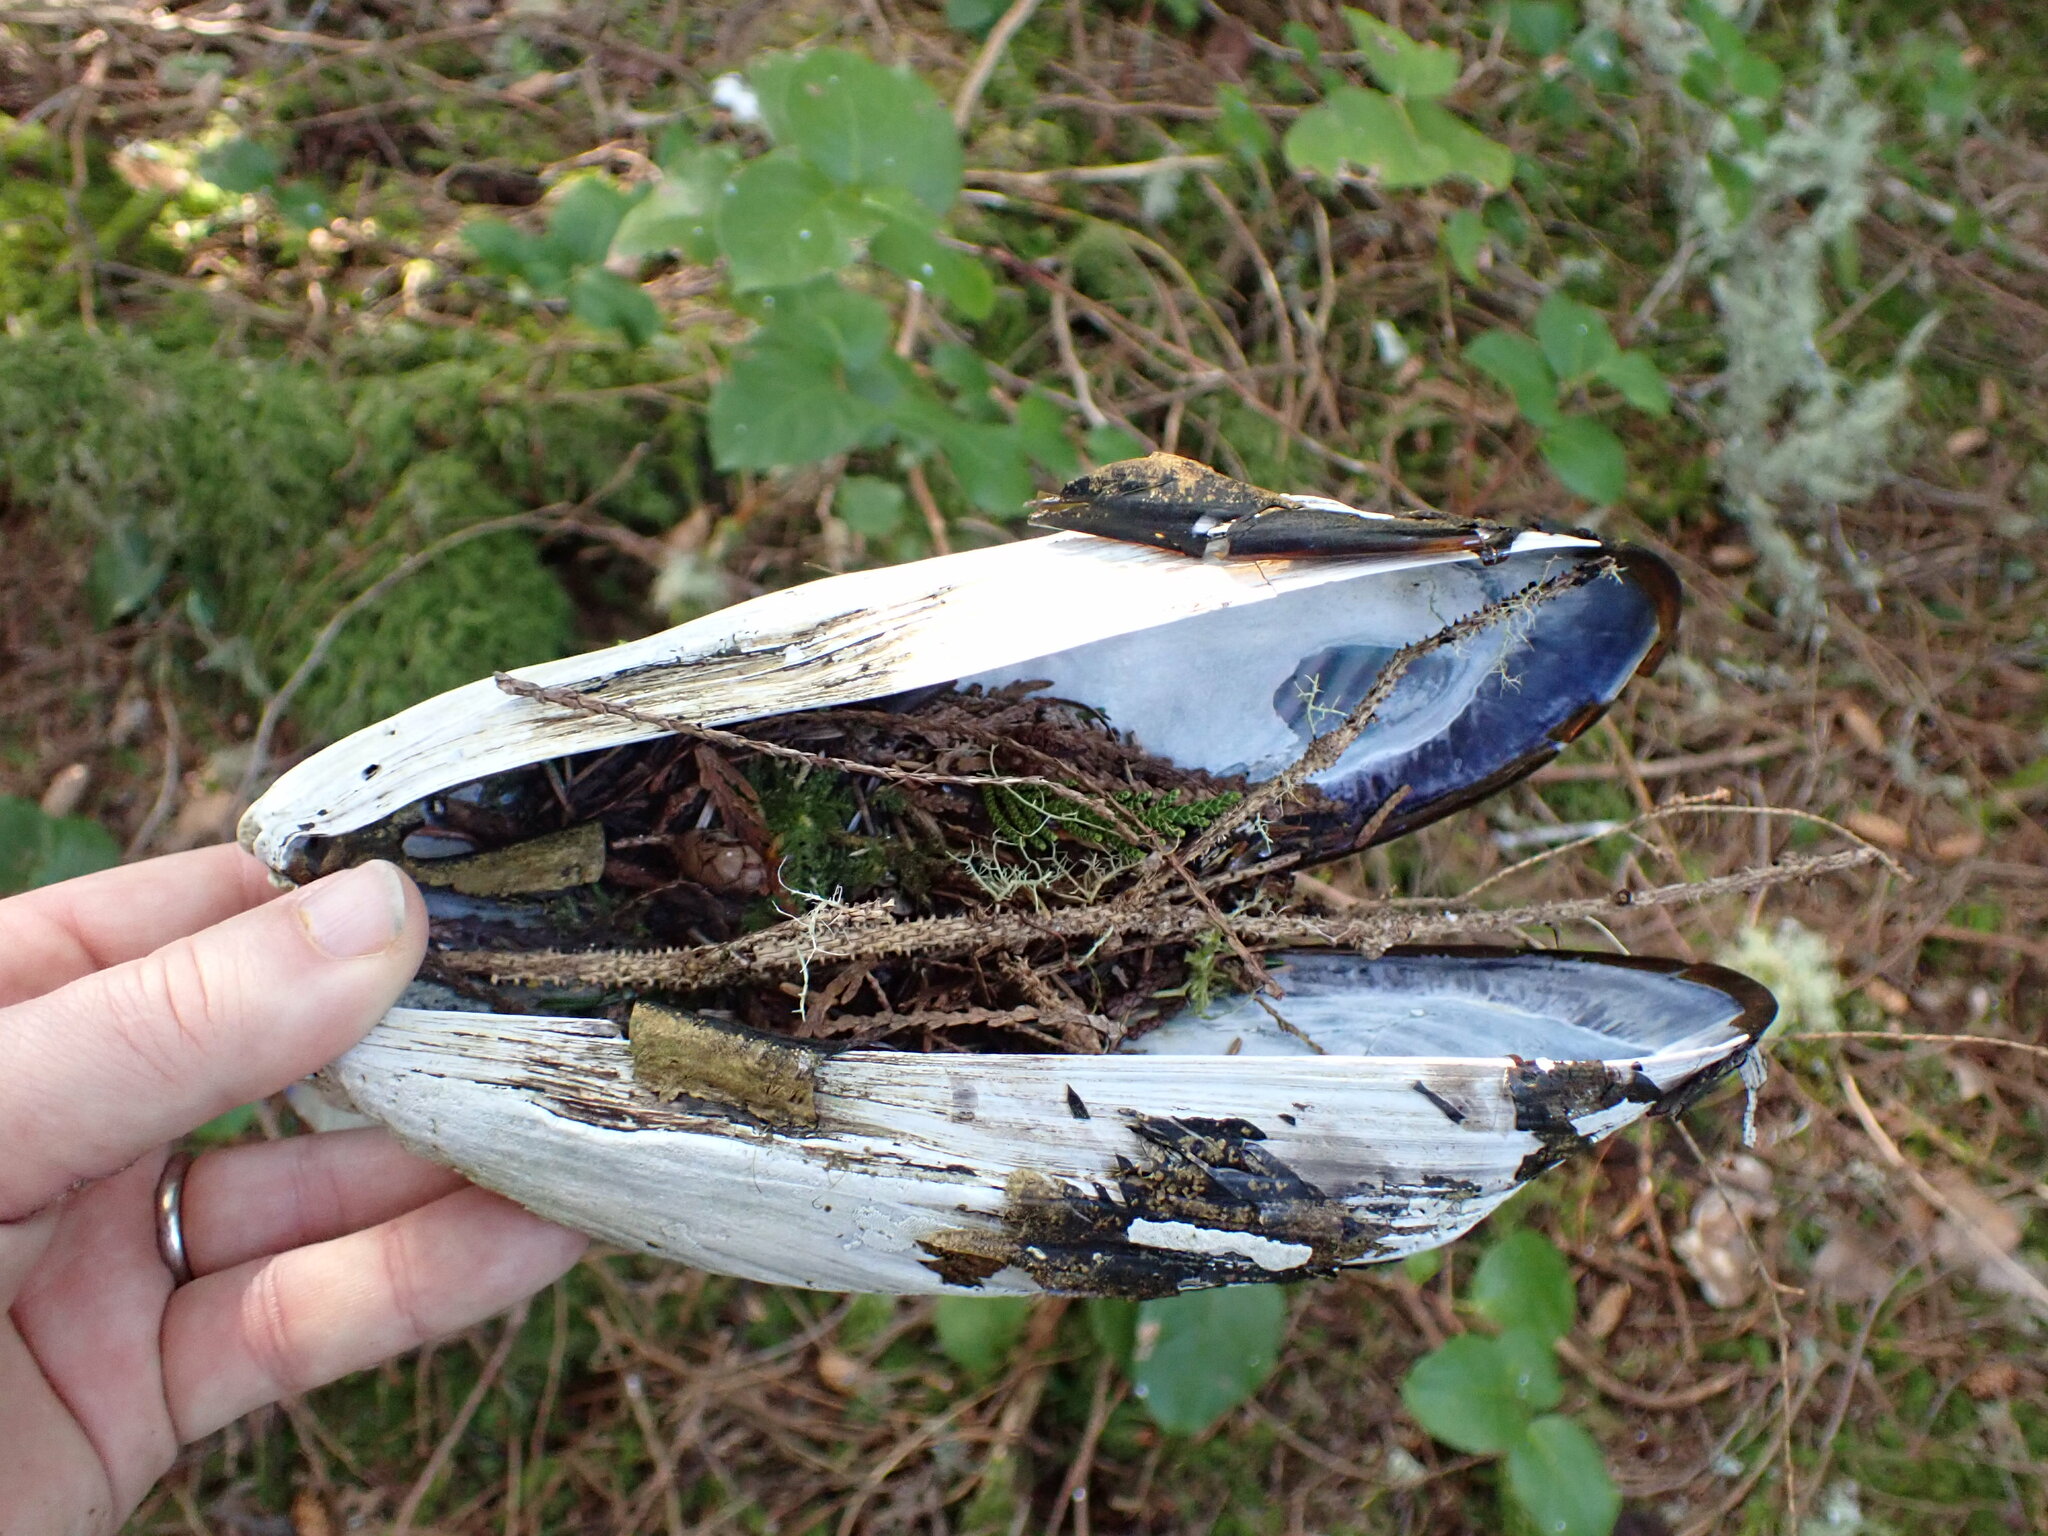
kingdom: Animalia
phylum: Mollusca
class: Bivalvia
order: Mytilida
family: Mytilidae
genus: Mytilus
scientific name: Mytilus californianus
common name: California mussel
